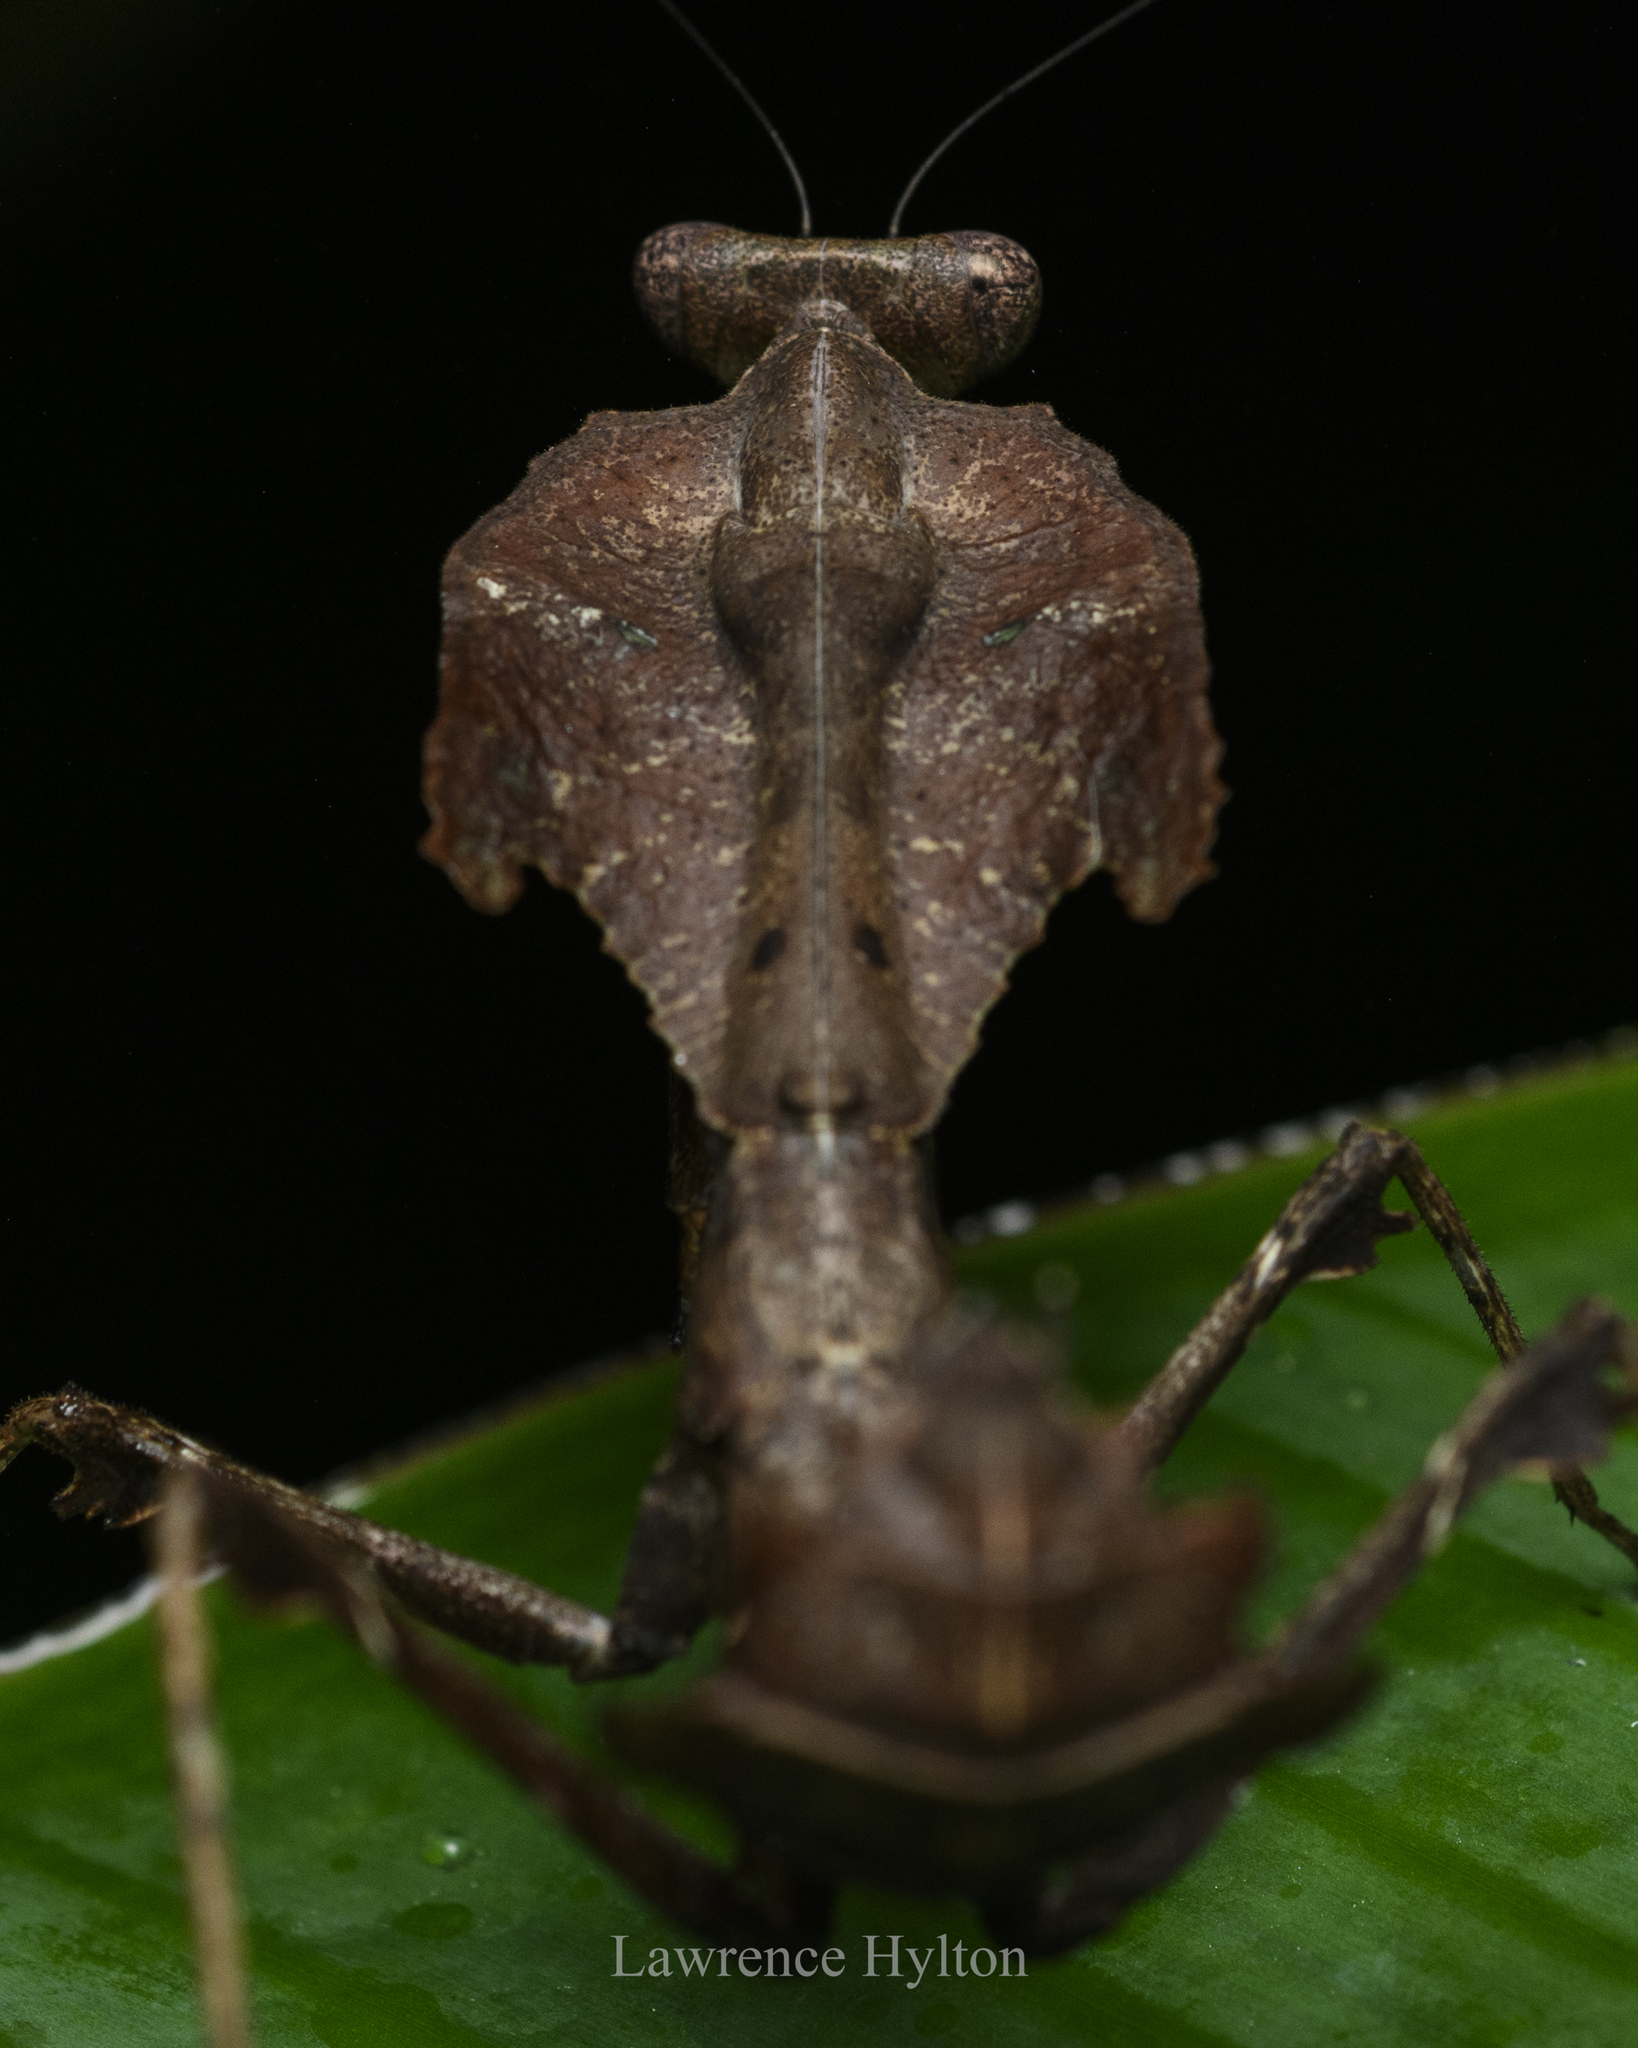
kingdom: Animalia
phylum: Arthropoda
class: Insecta
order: Mantodea
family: Deroplatyidae
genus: Deroplatys
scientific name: Deroplatys desiccata
